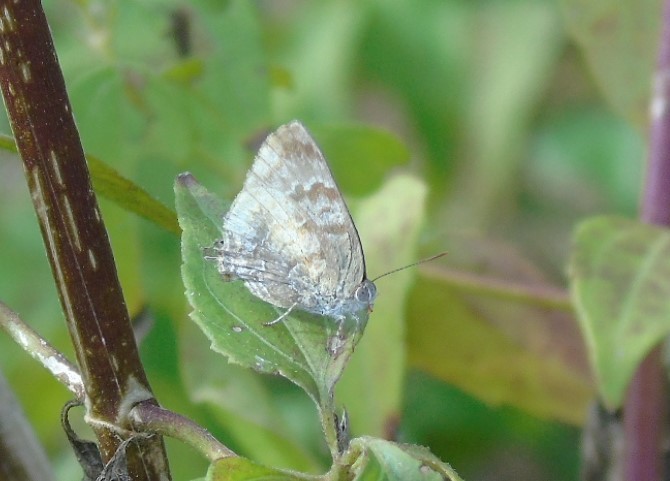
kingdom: Animalia
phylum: Arthropoda
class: Insecta
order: Lepidoptera
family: Lycaenidae
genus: Rekoa
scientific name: Rekoa palegon
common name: Gold-bordered hairstreak
